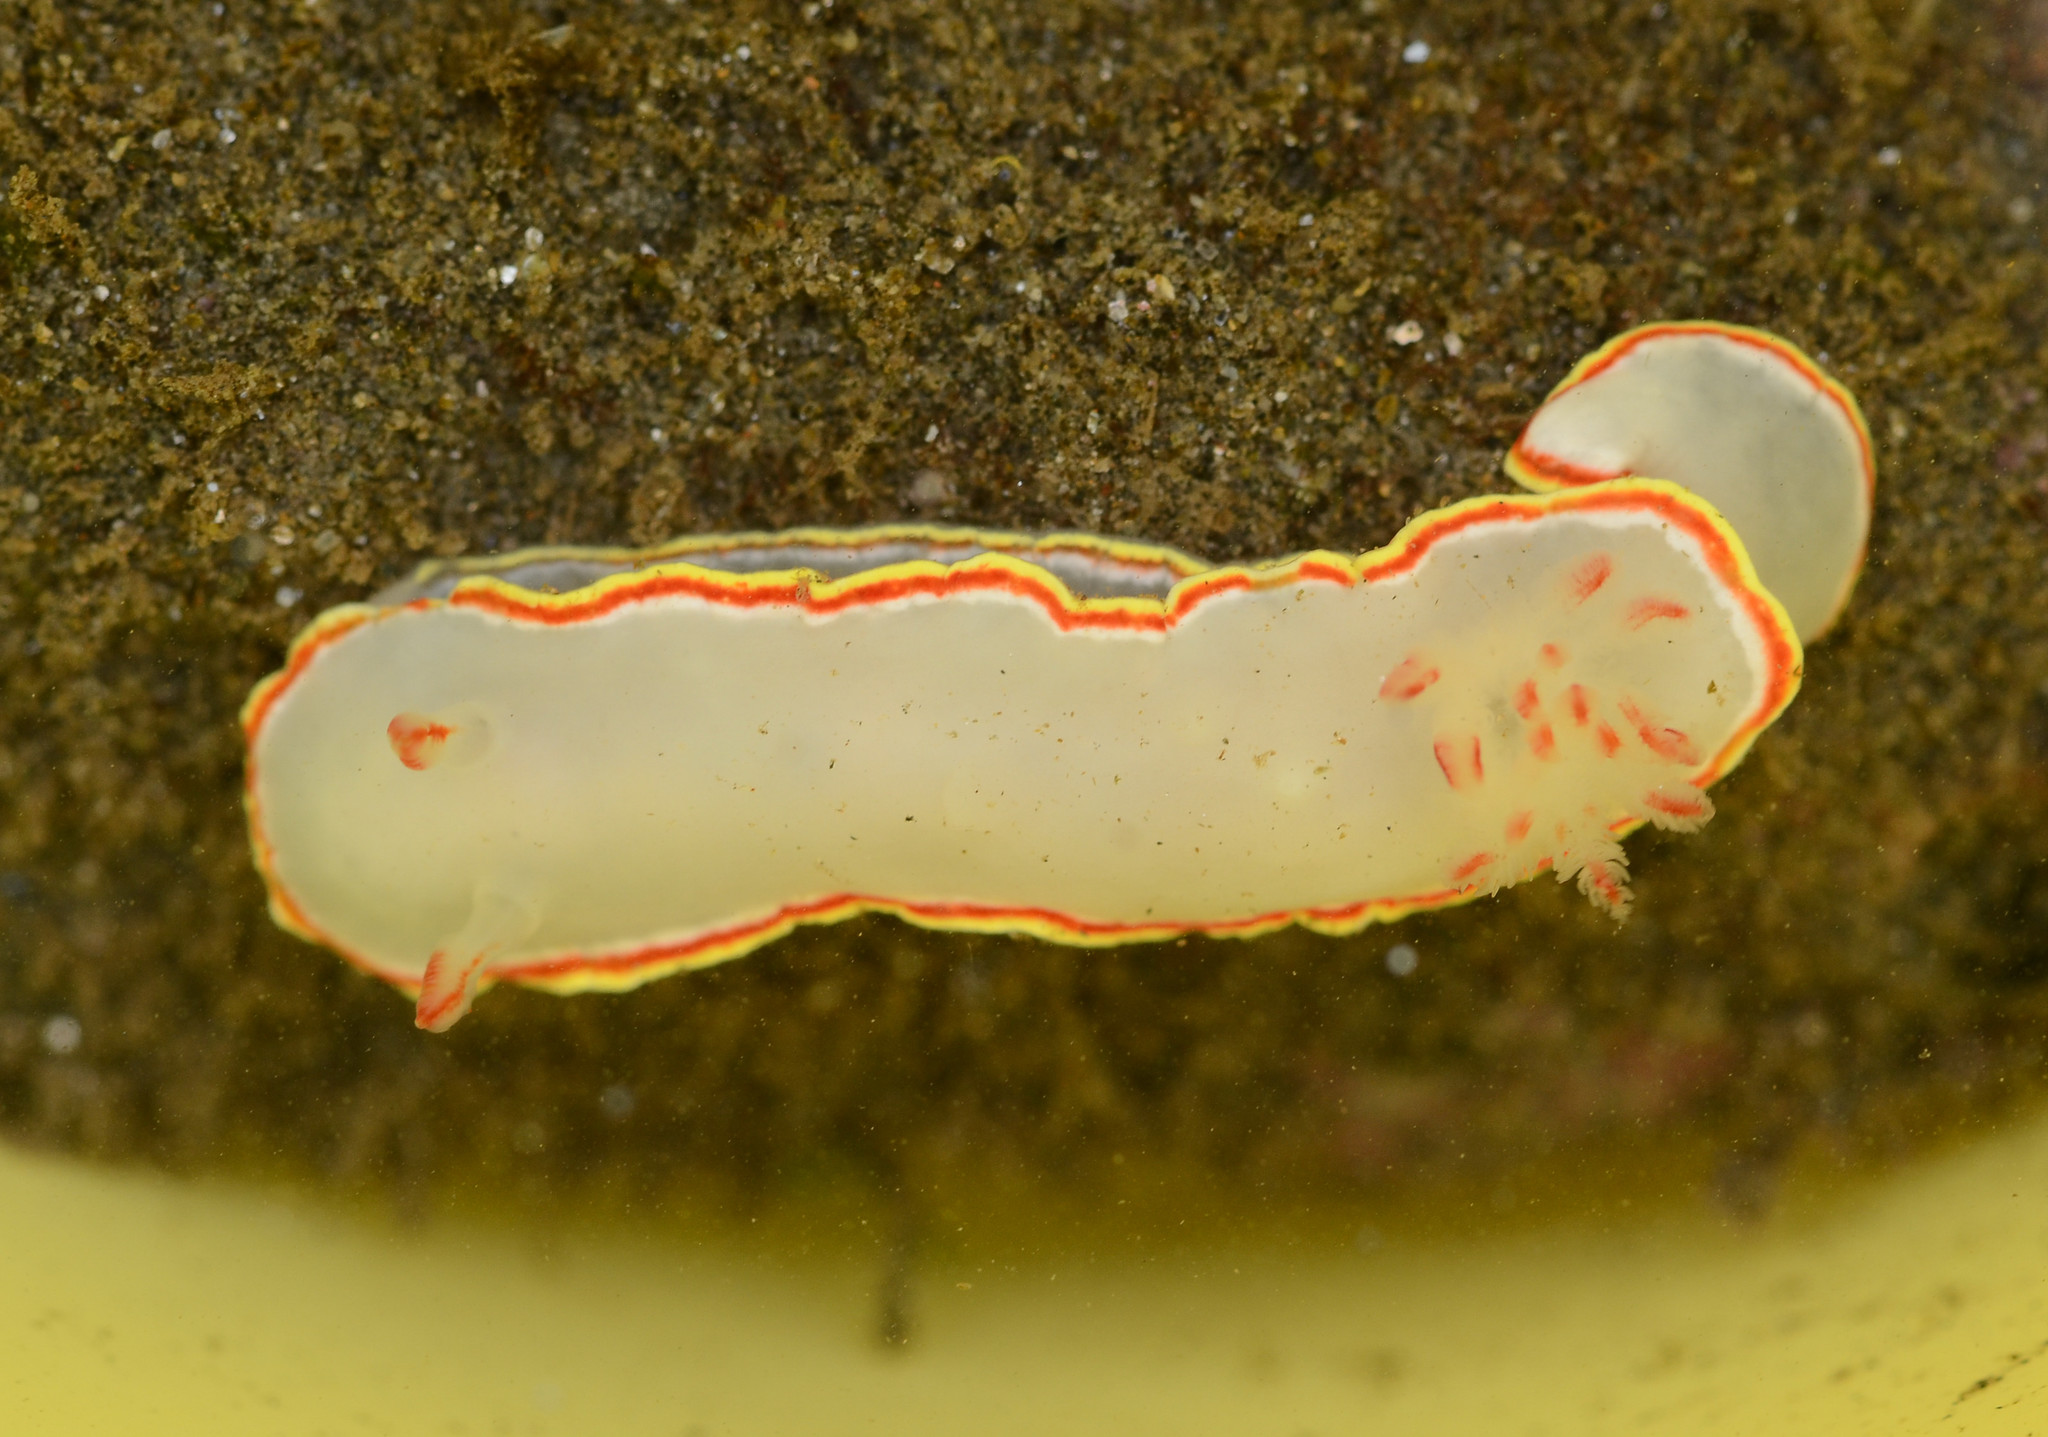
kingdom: Animalia
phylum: Mollusca
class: Gastropoda
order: Nudibranchia
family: Chromodorididae
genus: Chromolaichma
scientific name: Chromolaichma sedna
